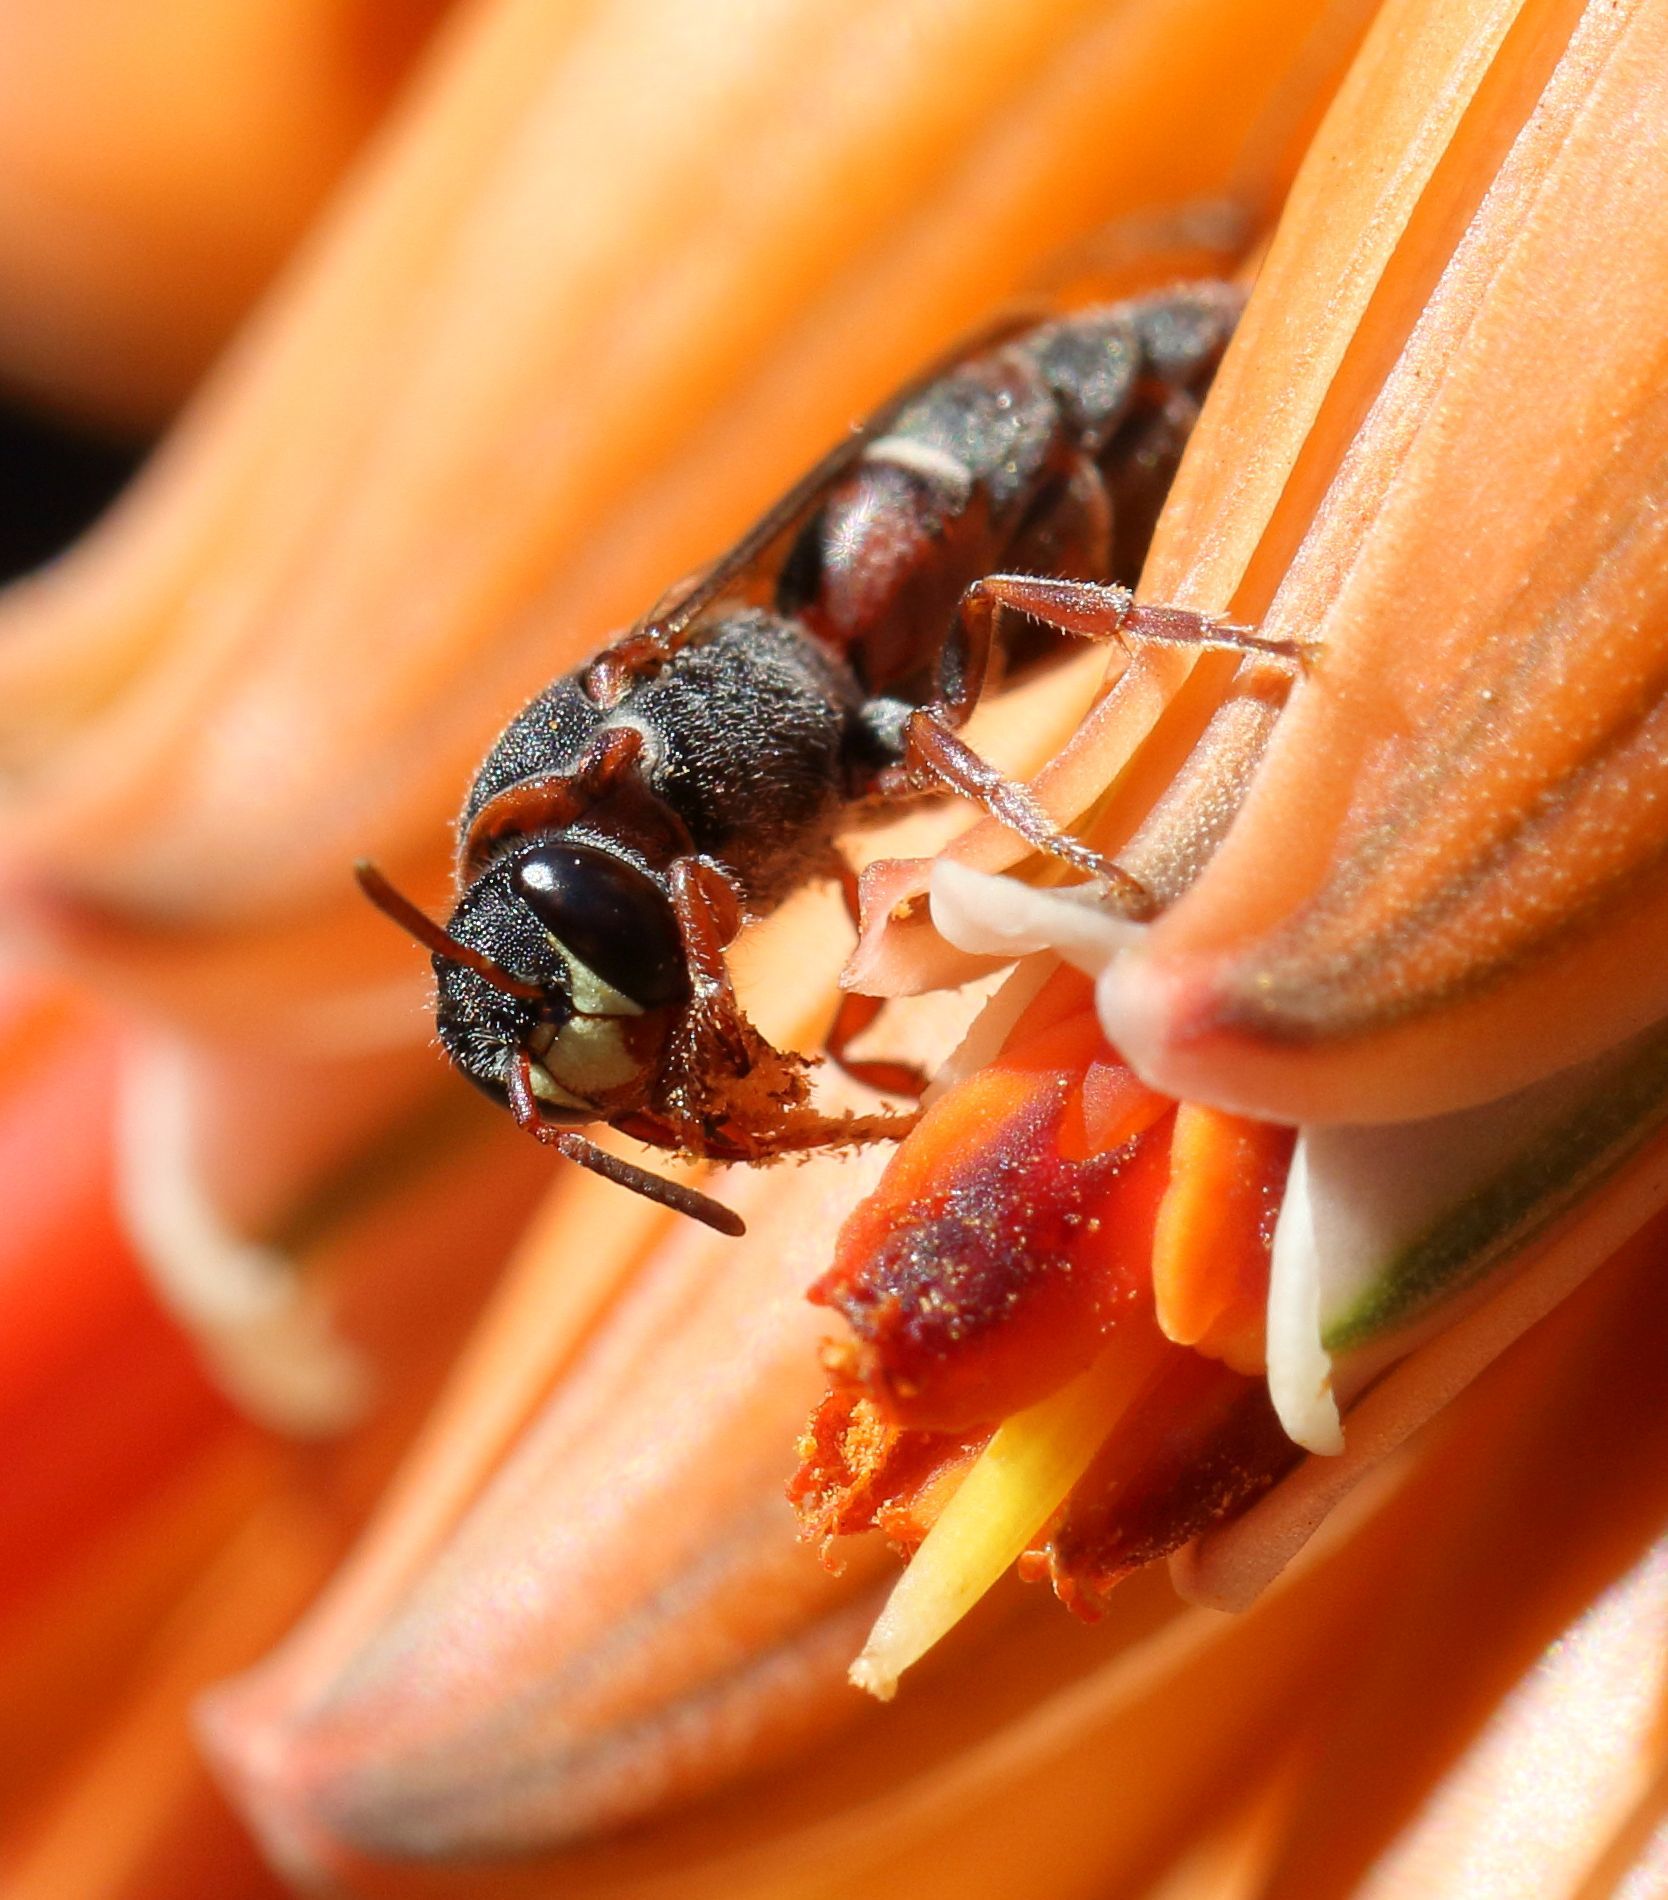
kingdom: Animalia
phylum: Arthropoda
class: Insecta
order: Hymenoptera
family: Colletidae
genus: Hylaeus
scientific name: Hylaeus heraldicus
